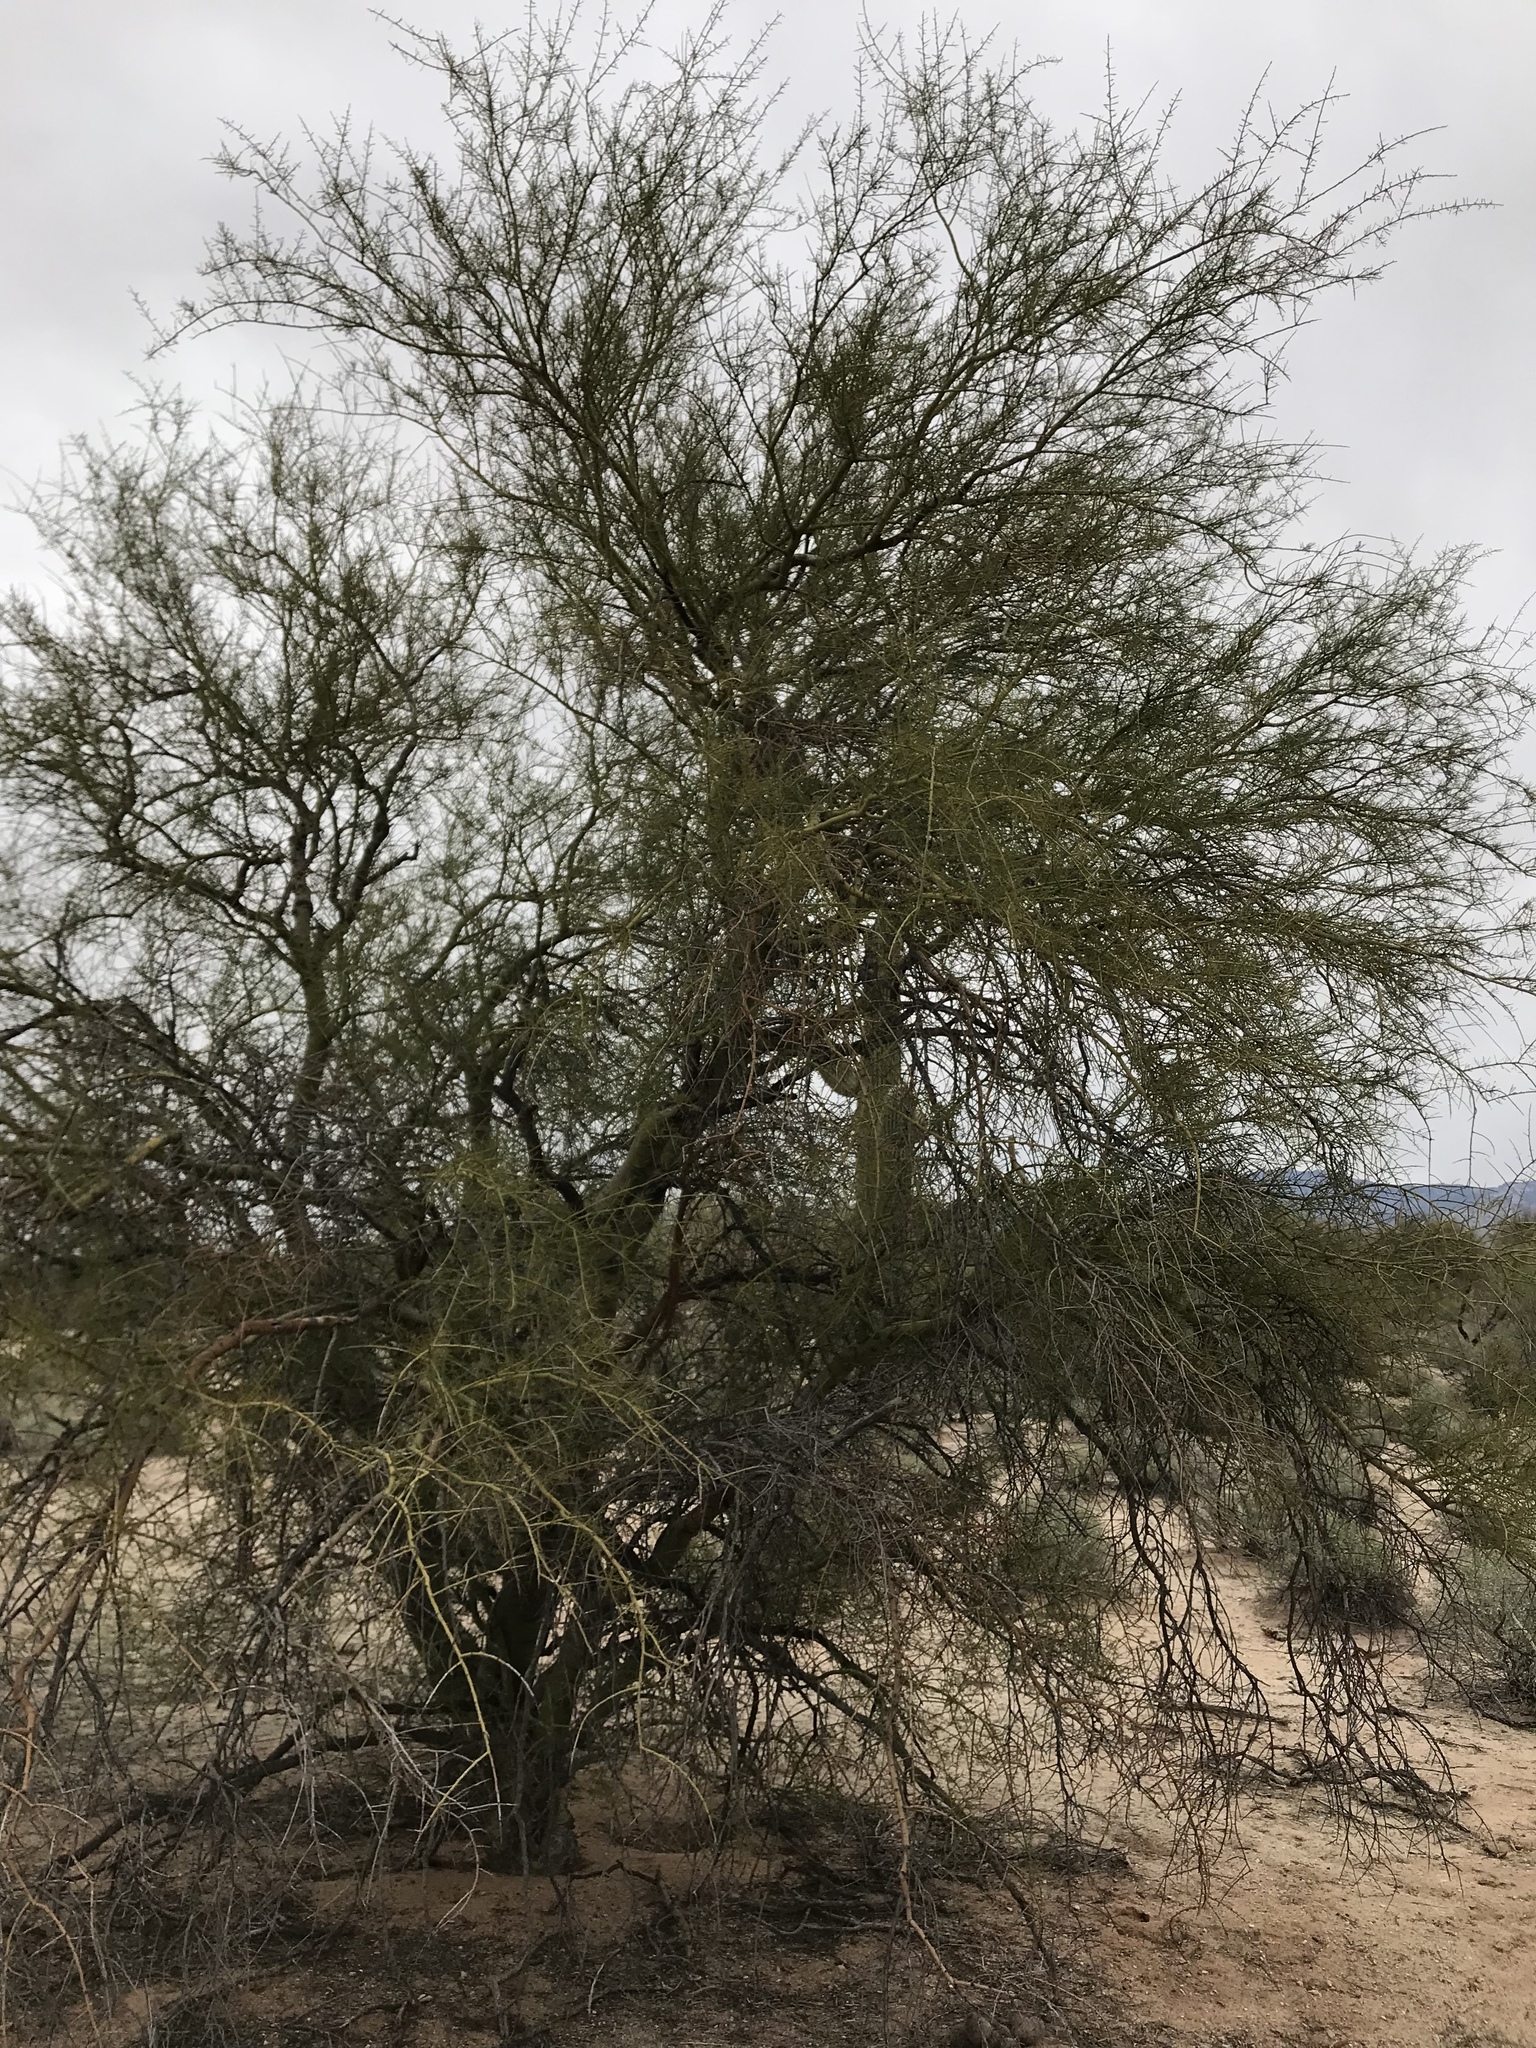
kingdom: Plantae
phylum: Tracheophyta
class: Magnoliopsida
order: Fabales
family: Fabaceae
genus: Parkinsonia
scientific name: Parkinsonia microphylla
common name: Yellow paloverde
